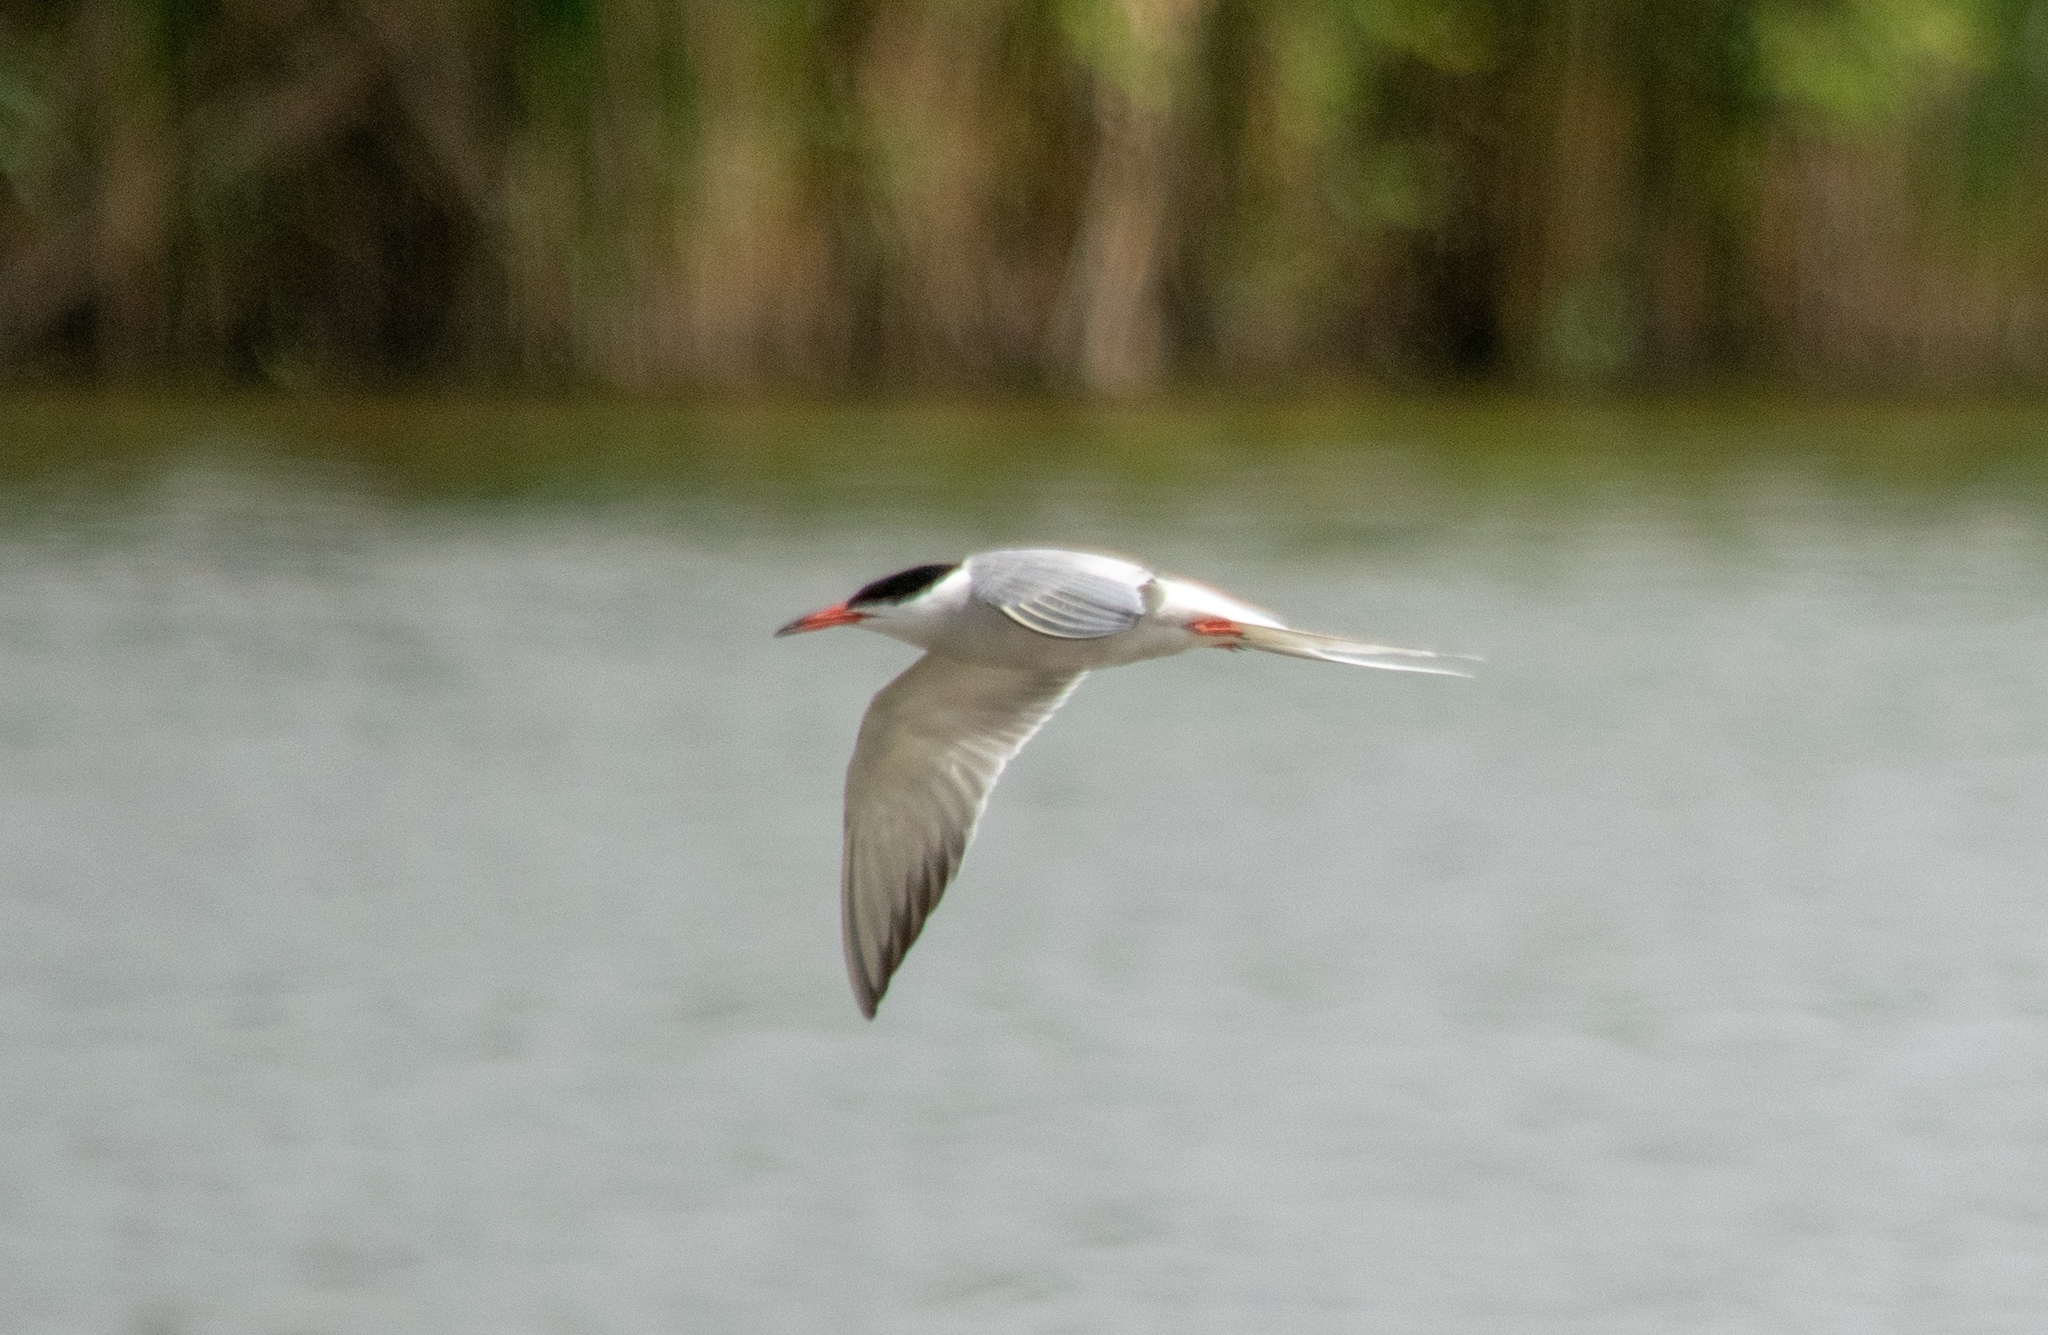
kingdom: Animalia
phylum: Chordata
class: Aves
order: Charadriiformes
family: Laridae
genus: Sterna
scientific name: Sterna hirundo
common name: Common tern
